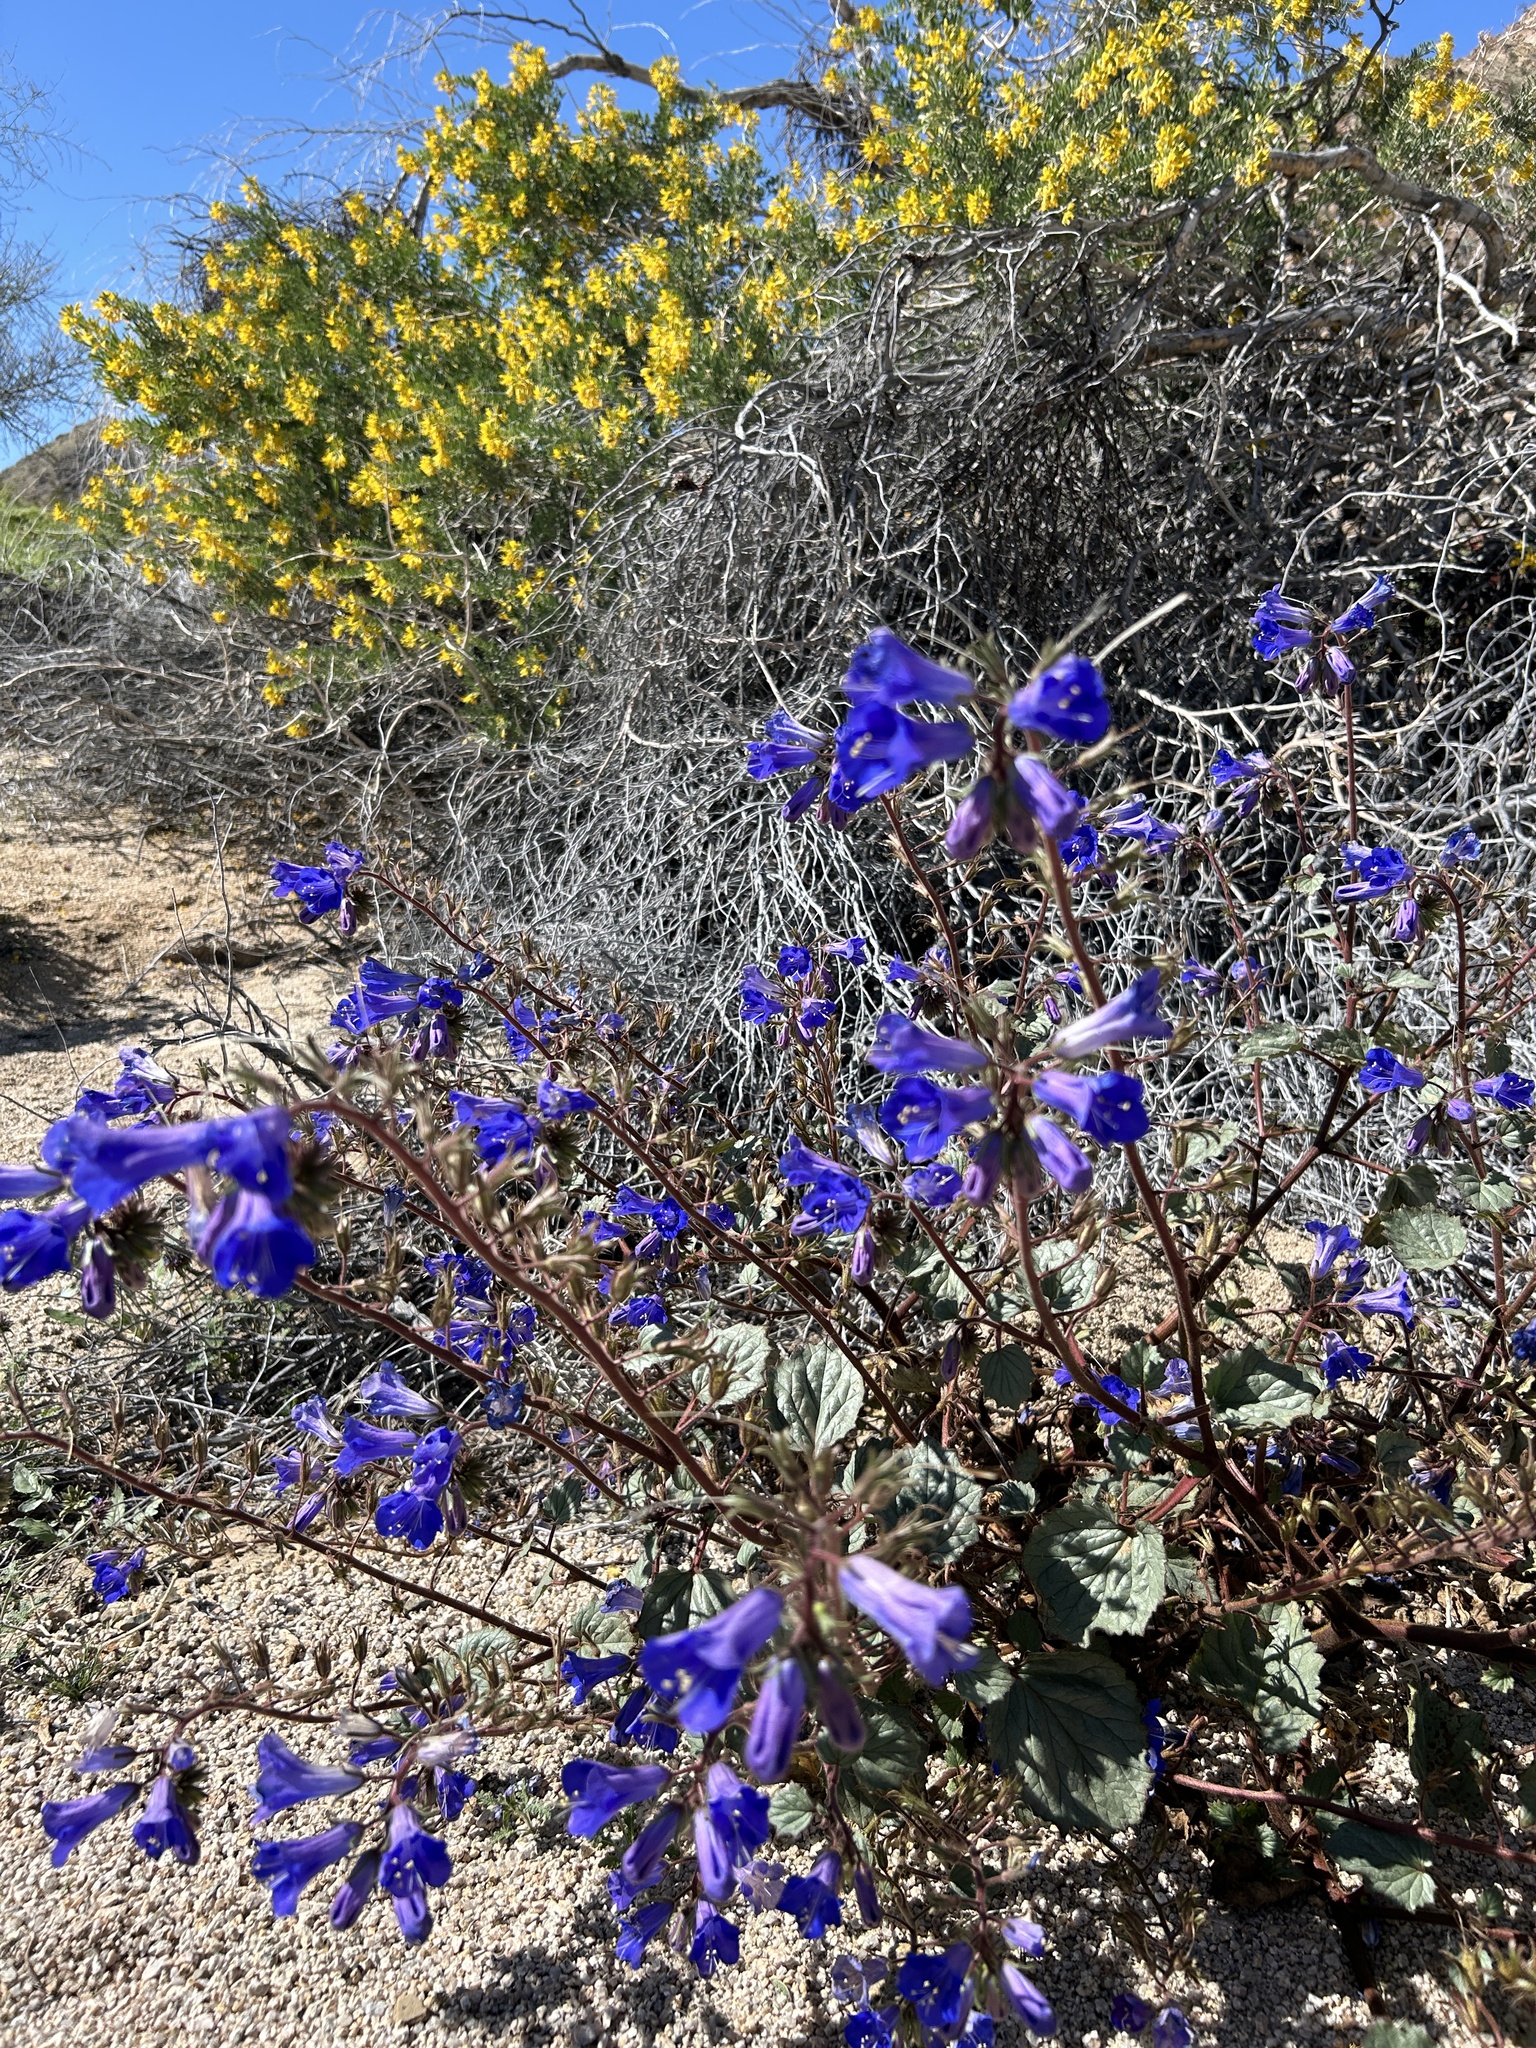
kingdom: Plantae
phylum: Tracheophyta
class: Magnoliopsida
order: Boraginales
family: Hydrophyllaceae
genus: Phacelia
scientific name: Phacelia campanularia
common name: California bluebell
